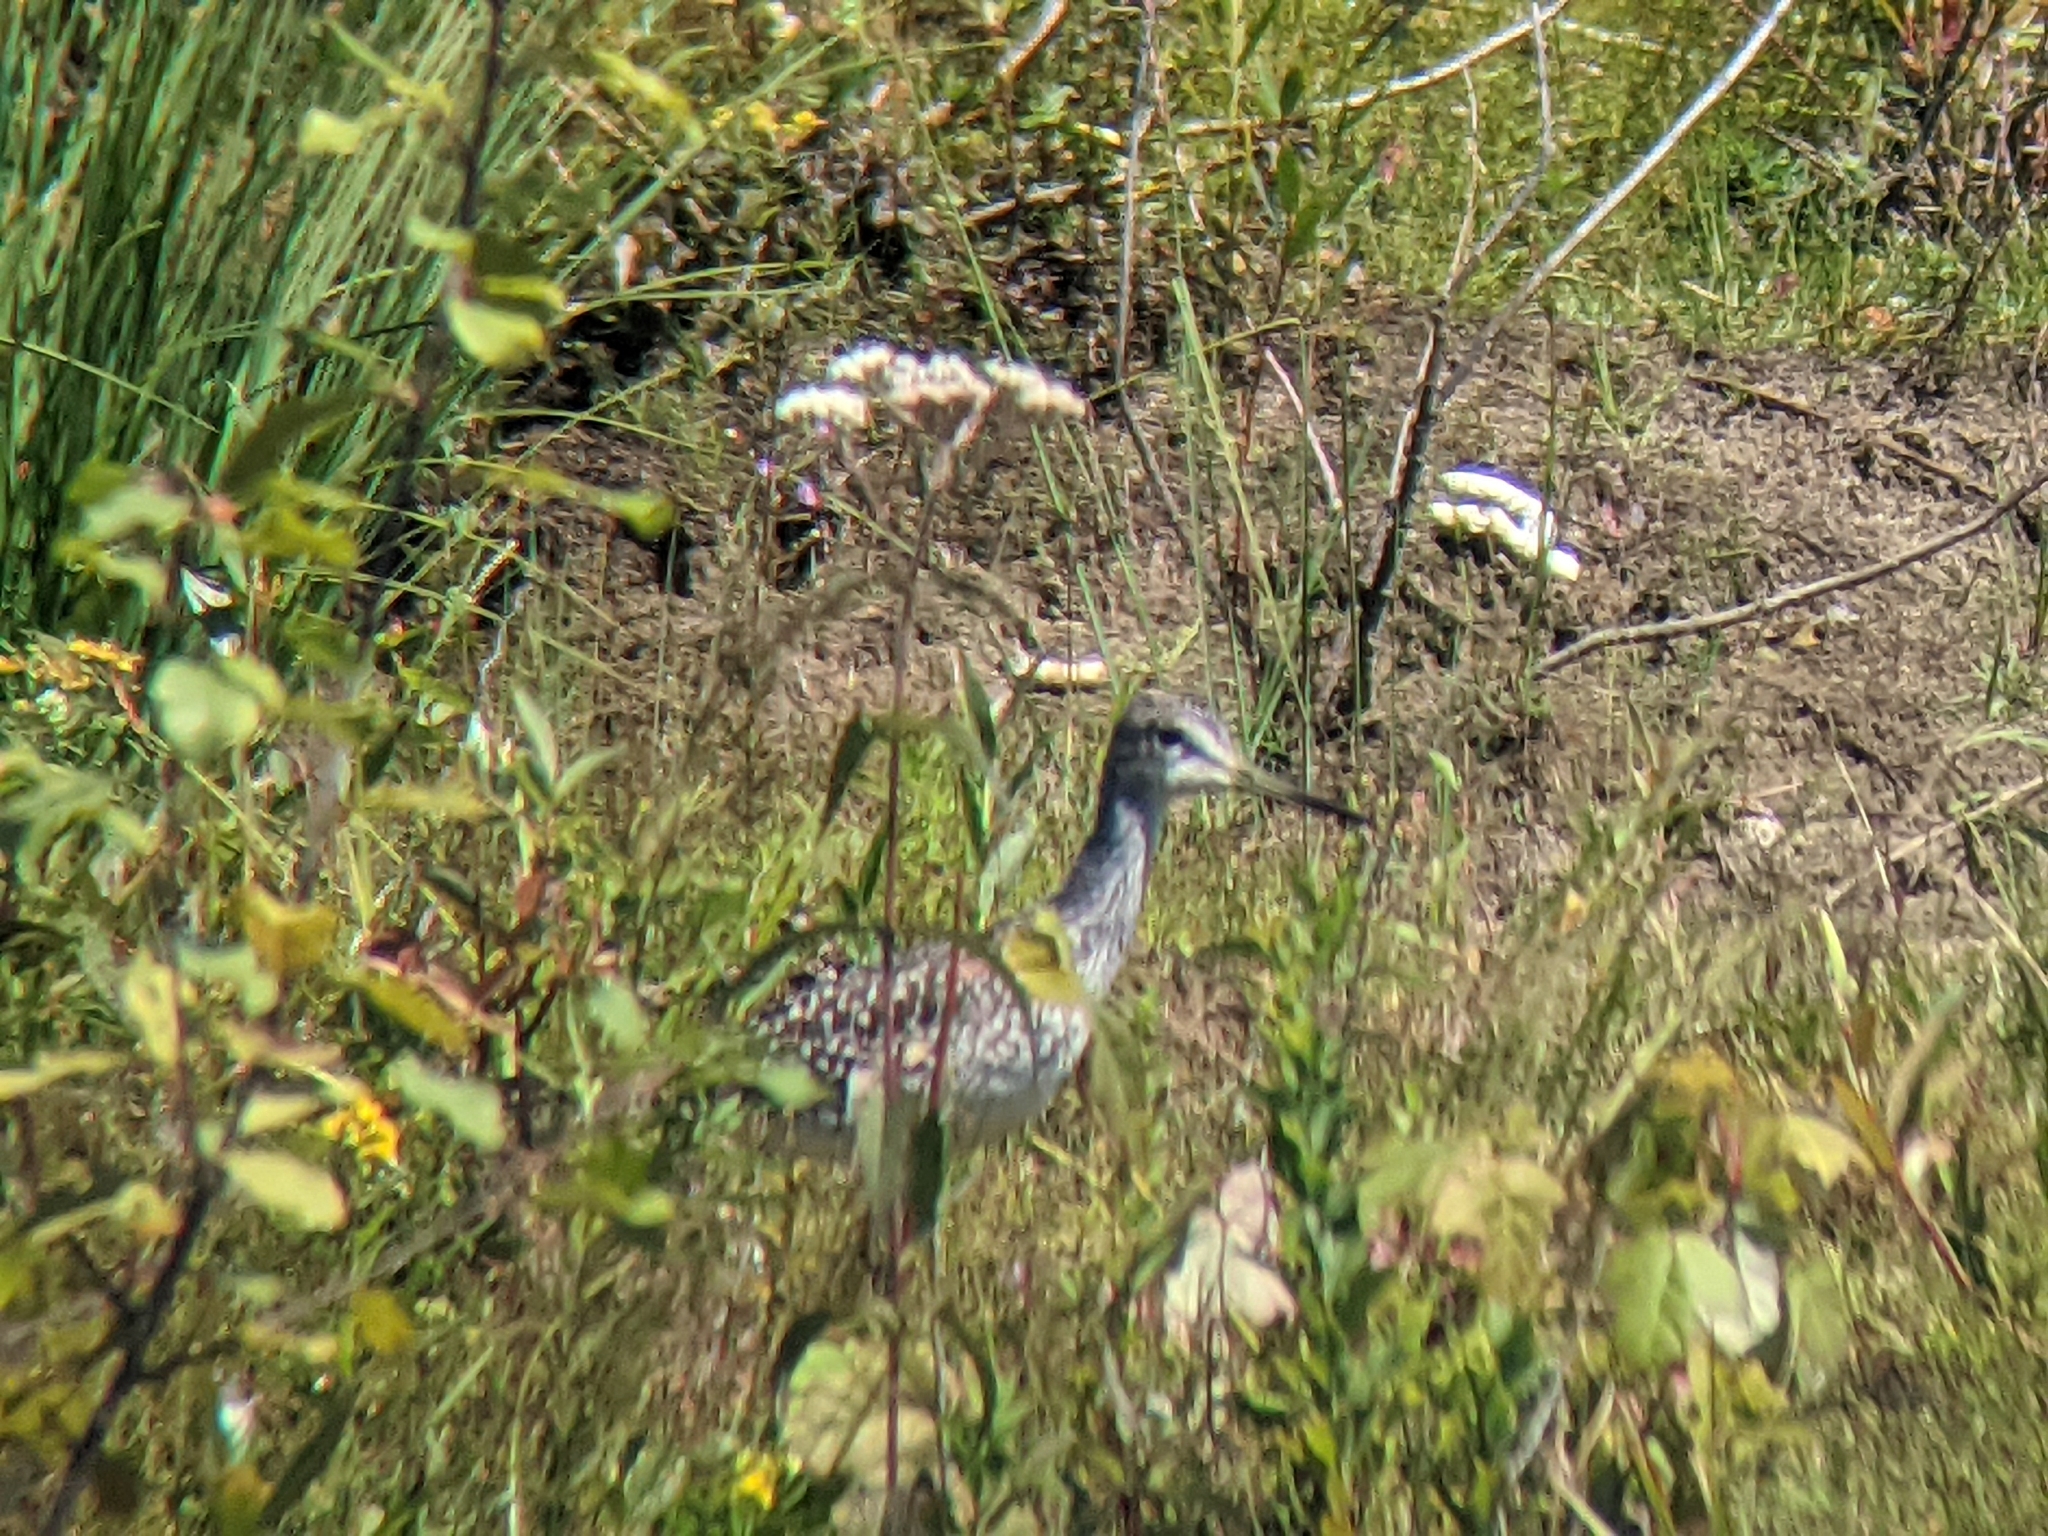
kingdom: Animalia
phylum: Chordata
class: Aves
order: Charadriiformes
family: Scolopacidae
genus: Tringa
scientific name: Tringa melanoleuca
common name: Greater yellowlegs
